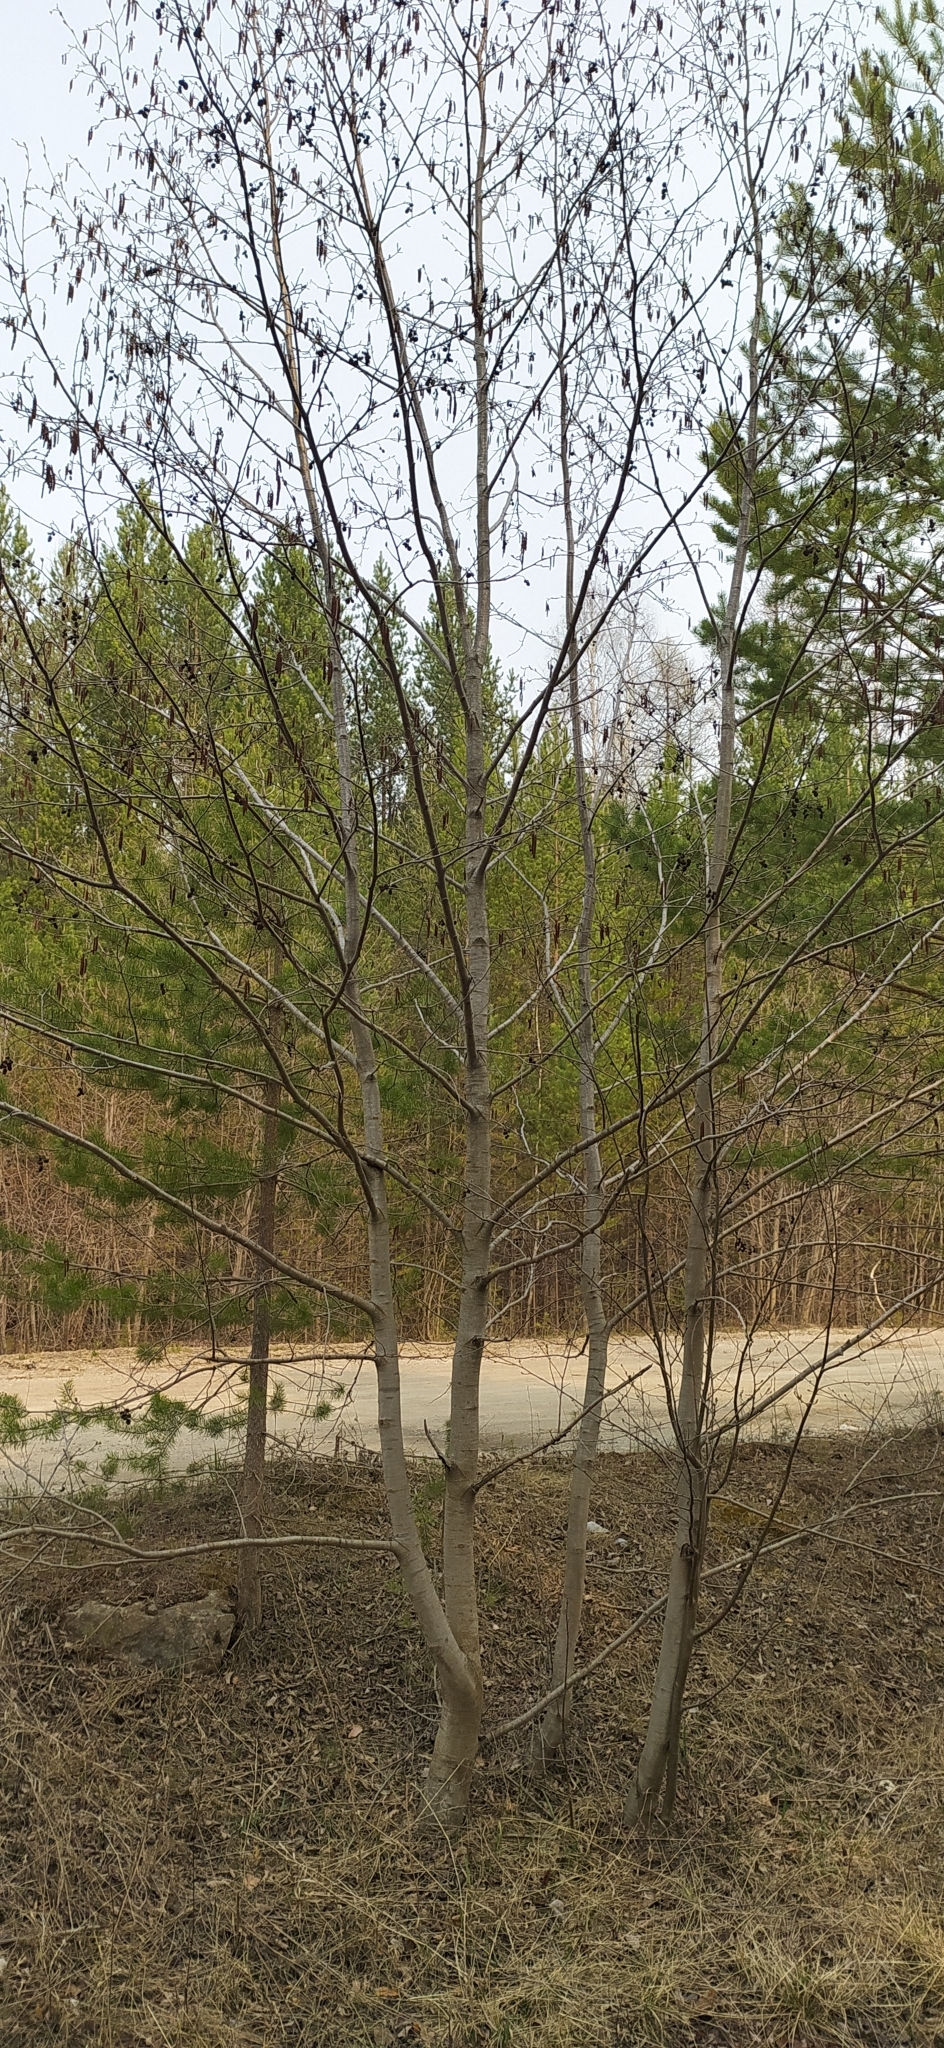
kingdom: Plantae
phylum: Tracheophyta
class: Magnoliopsida
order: Fagales
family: Betulaceae
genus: Alnus
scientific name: Alnus incana
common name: Grey alder
